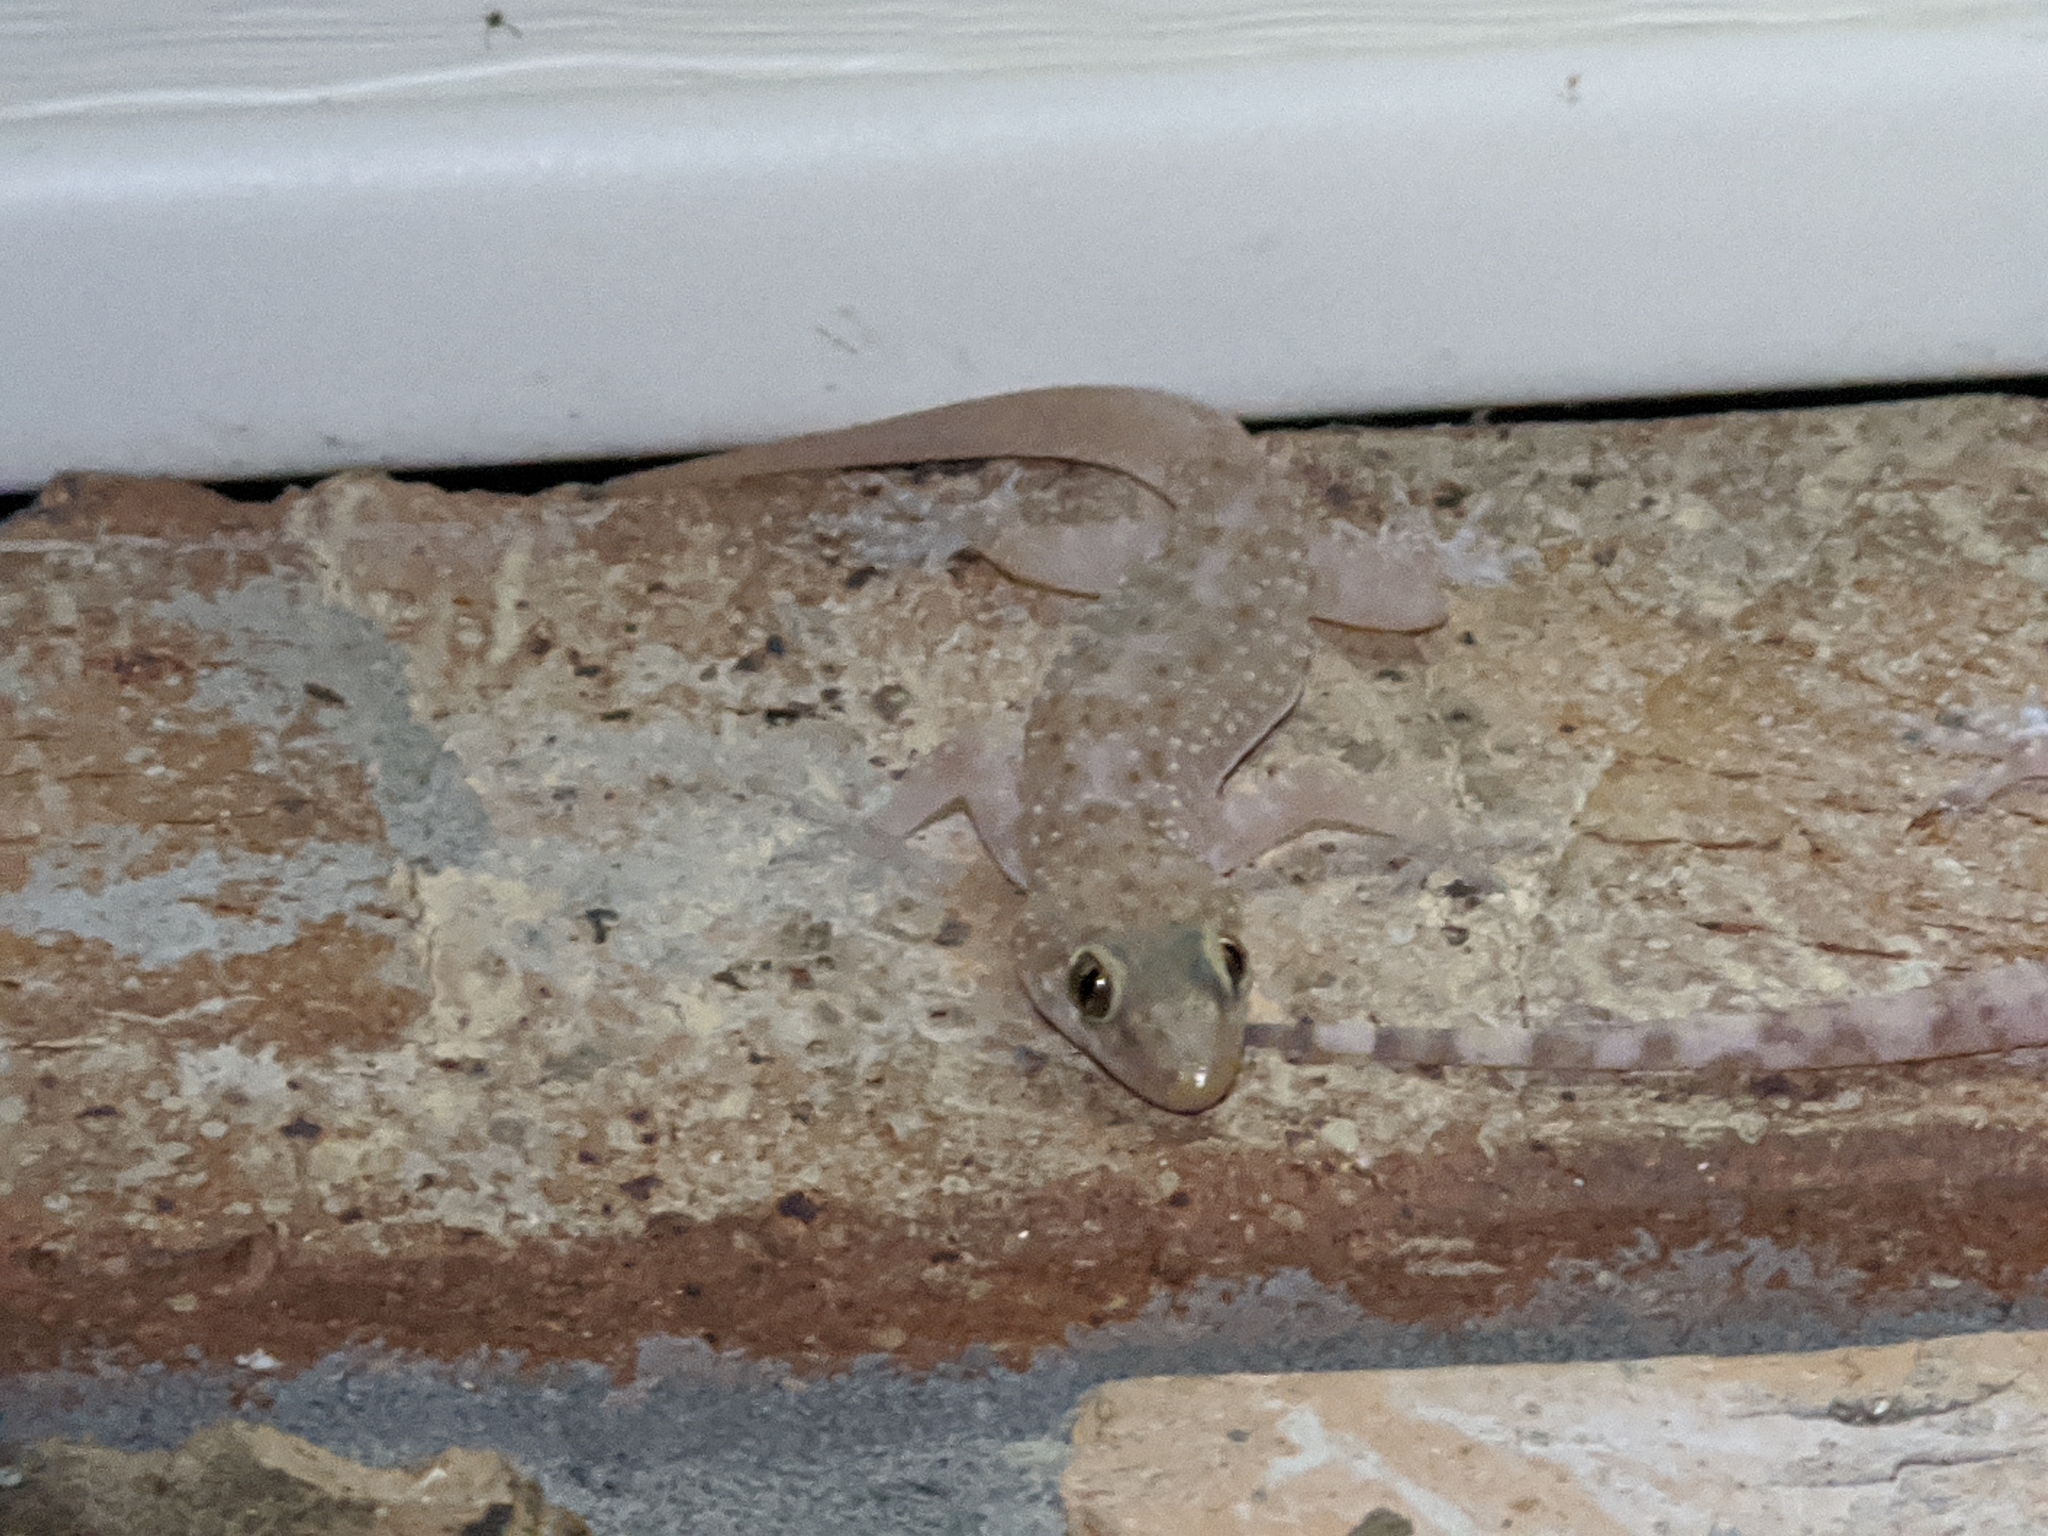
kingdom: Animalia
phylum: Chordata
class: Squamata
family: Gekkonidae
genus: Hemidactylus
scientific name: Hemidactylus turcicus
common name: Turkish gecko
